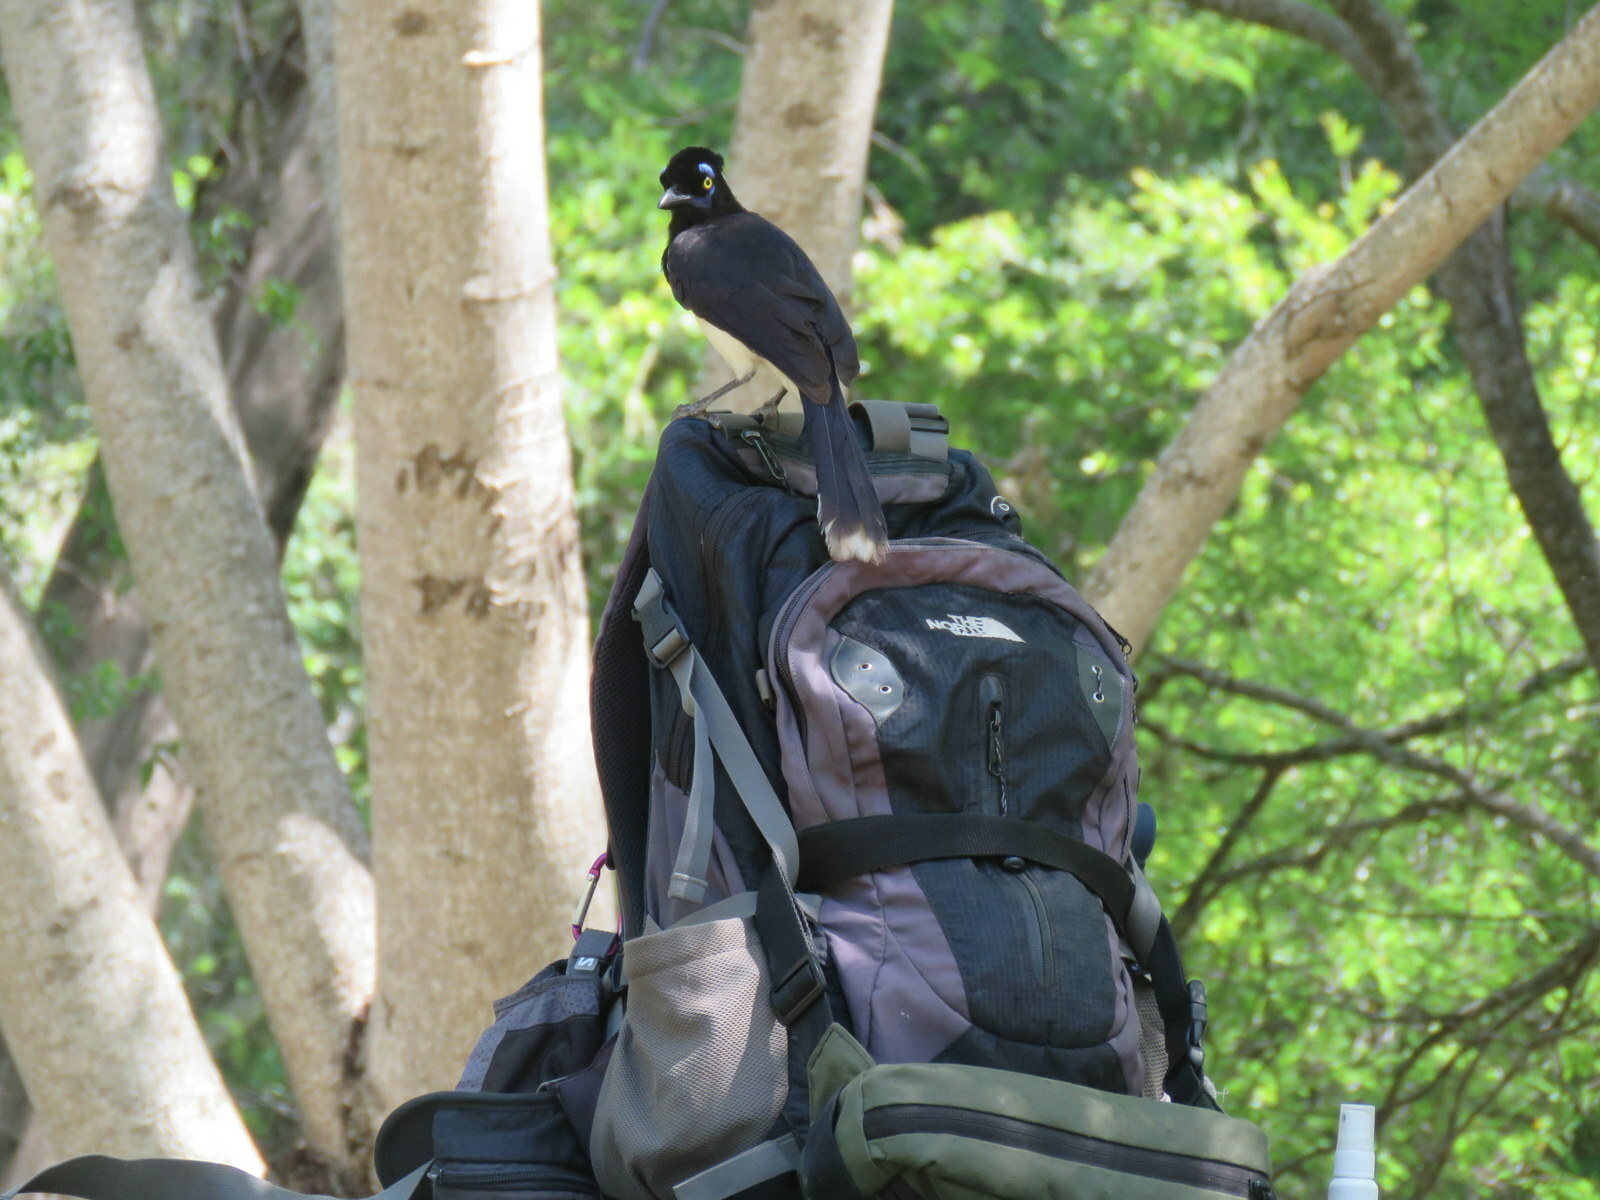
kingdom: Animalia
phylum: Chordata
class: Aves
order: Passeriformes
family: Corvidae
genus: Cyanocorax
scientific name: Cyanocorax chrysops
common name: Plush-crested jay
